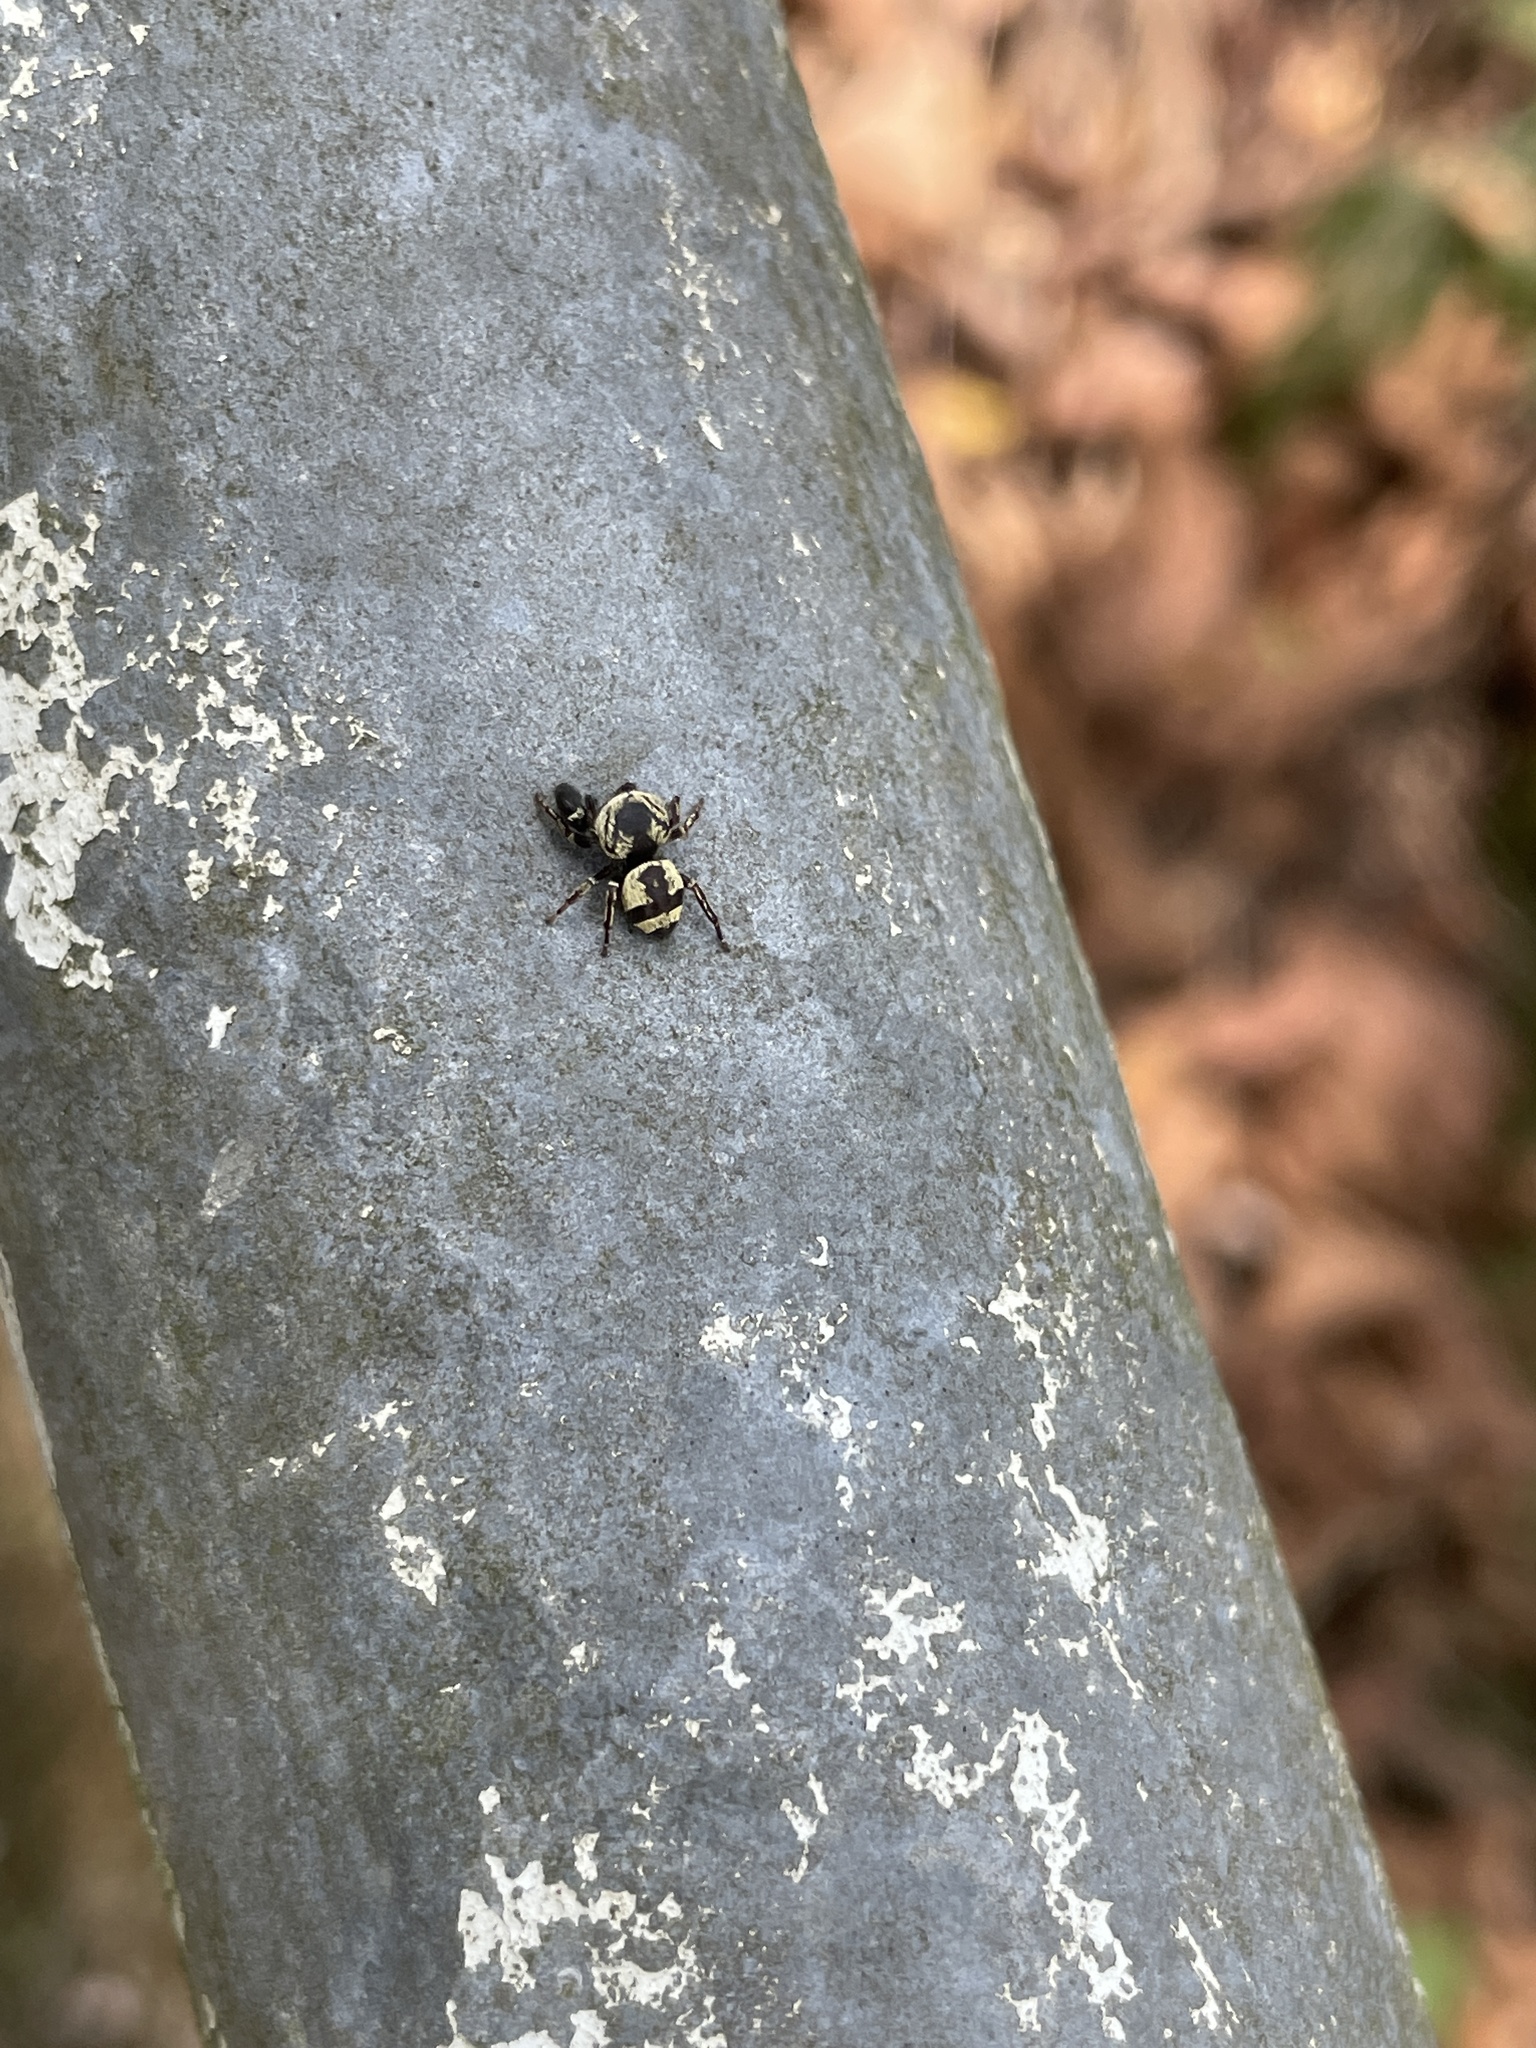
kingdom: Animalia
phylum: Arthropoda
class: Arachnida
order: Araneae
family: Salticidae
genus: Rhene
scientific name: Rhene flavicomans
